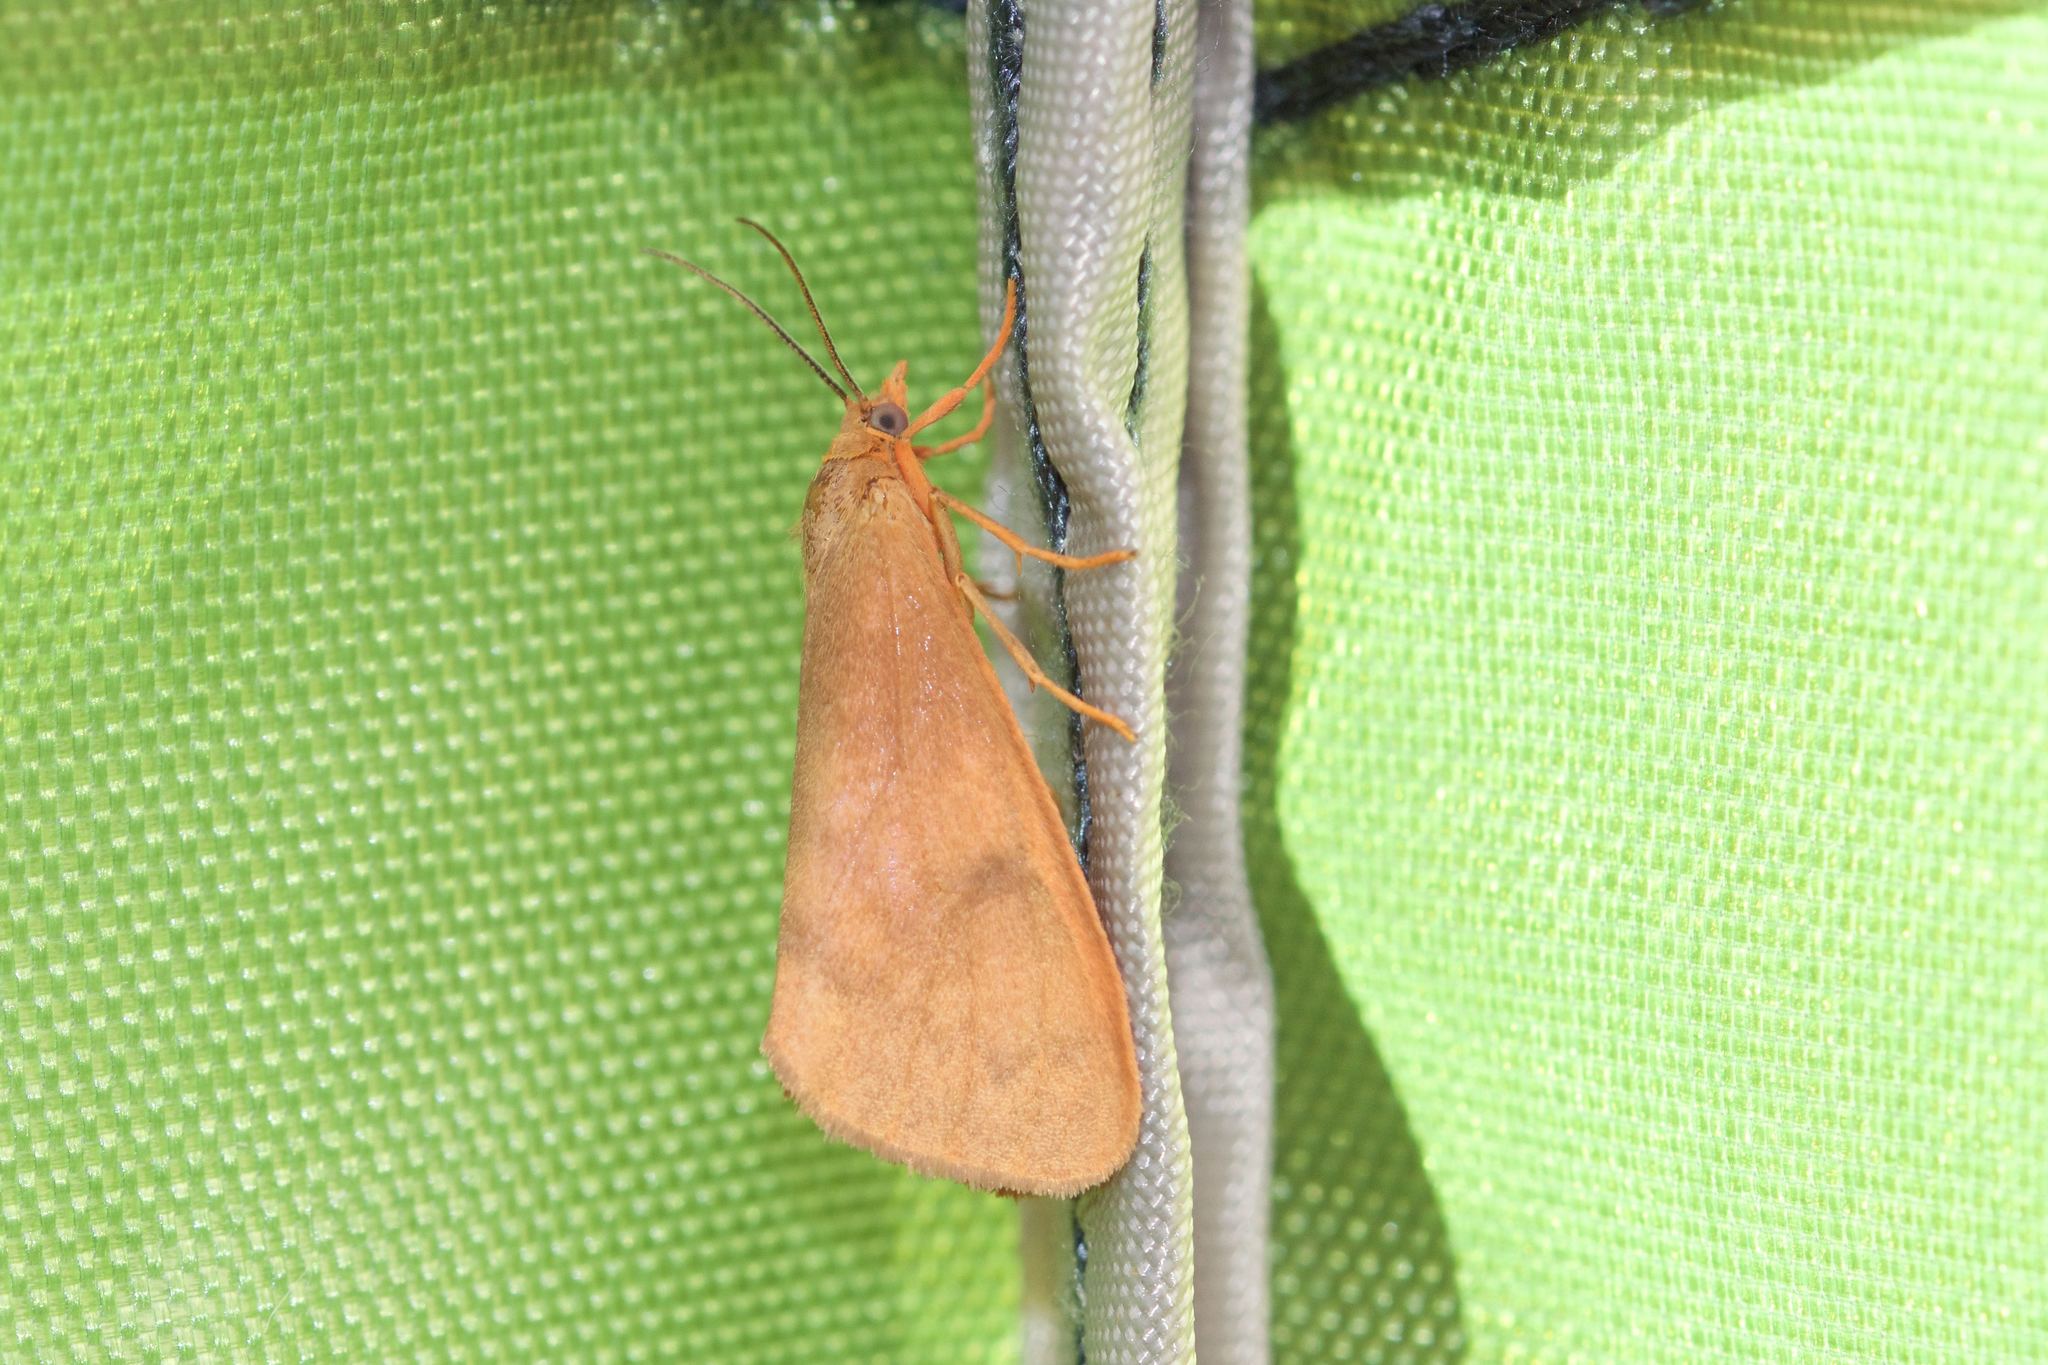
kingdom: Animalia
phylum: Arthropoda
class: Insecta
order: Lepidoptera
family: Erebidae
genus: Virbia
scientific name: Virbia ferruginosa
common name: Rusty virbia moth
